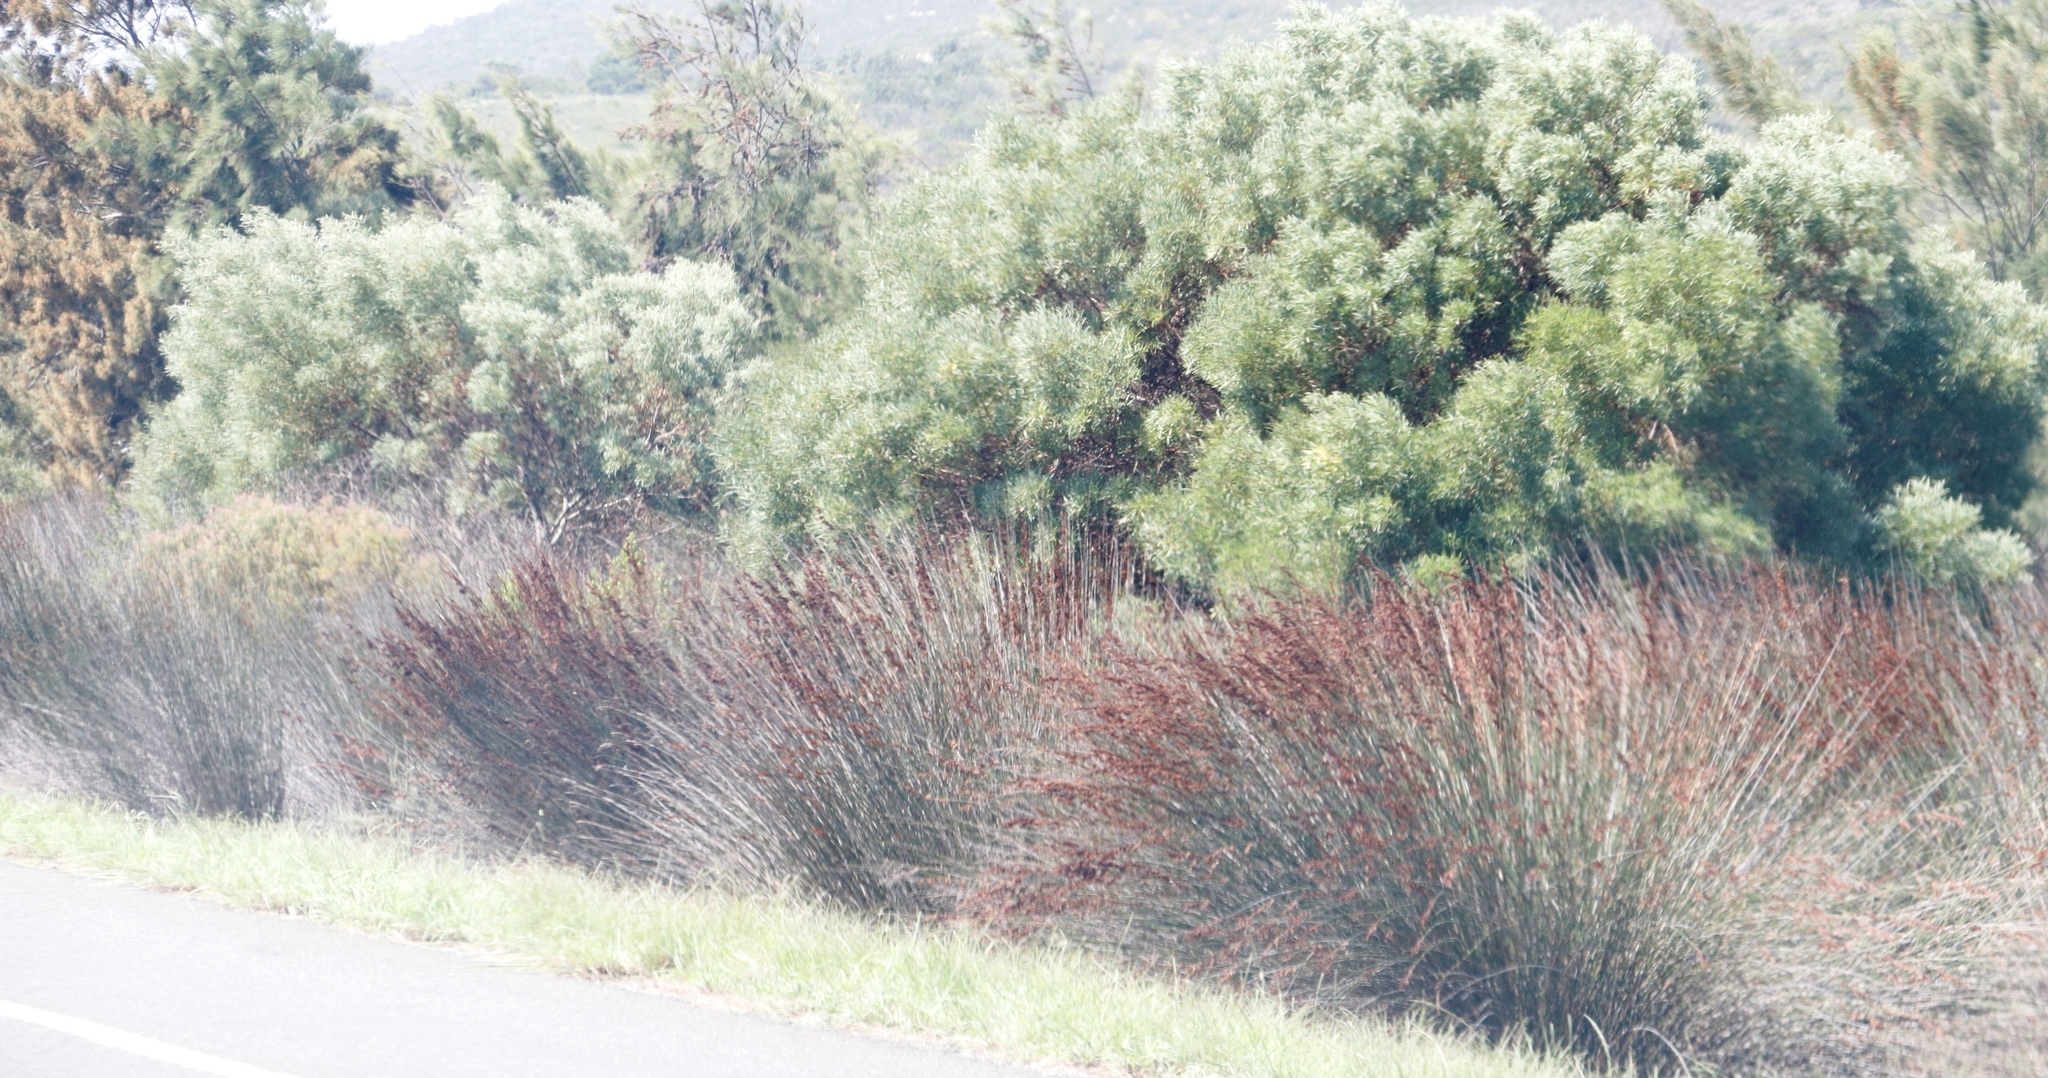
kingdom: Plantae
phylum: Tracheophyta
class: Magnoliopsida
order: Fabales
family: Fabaceae
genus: Acacia
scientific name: Acacia cyclops
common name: Coastal wattle
